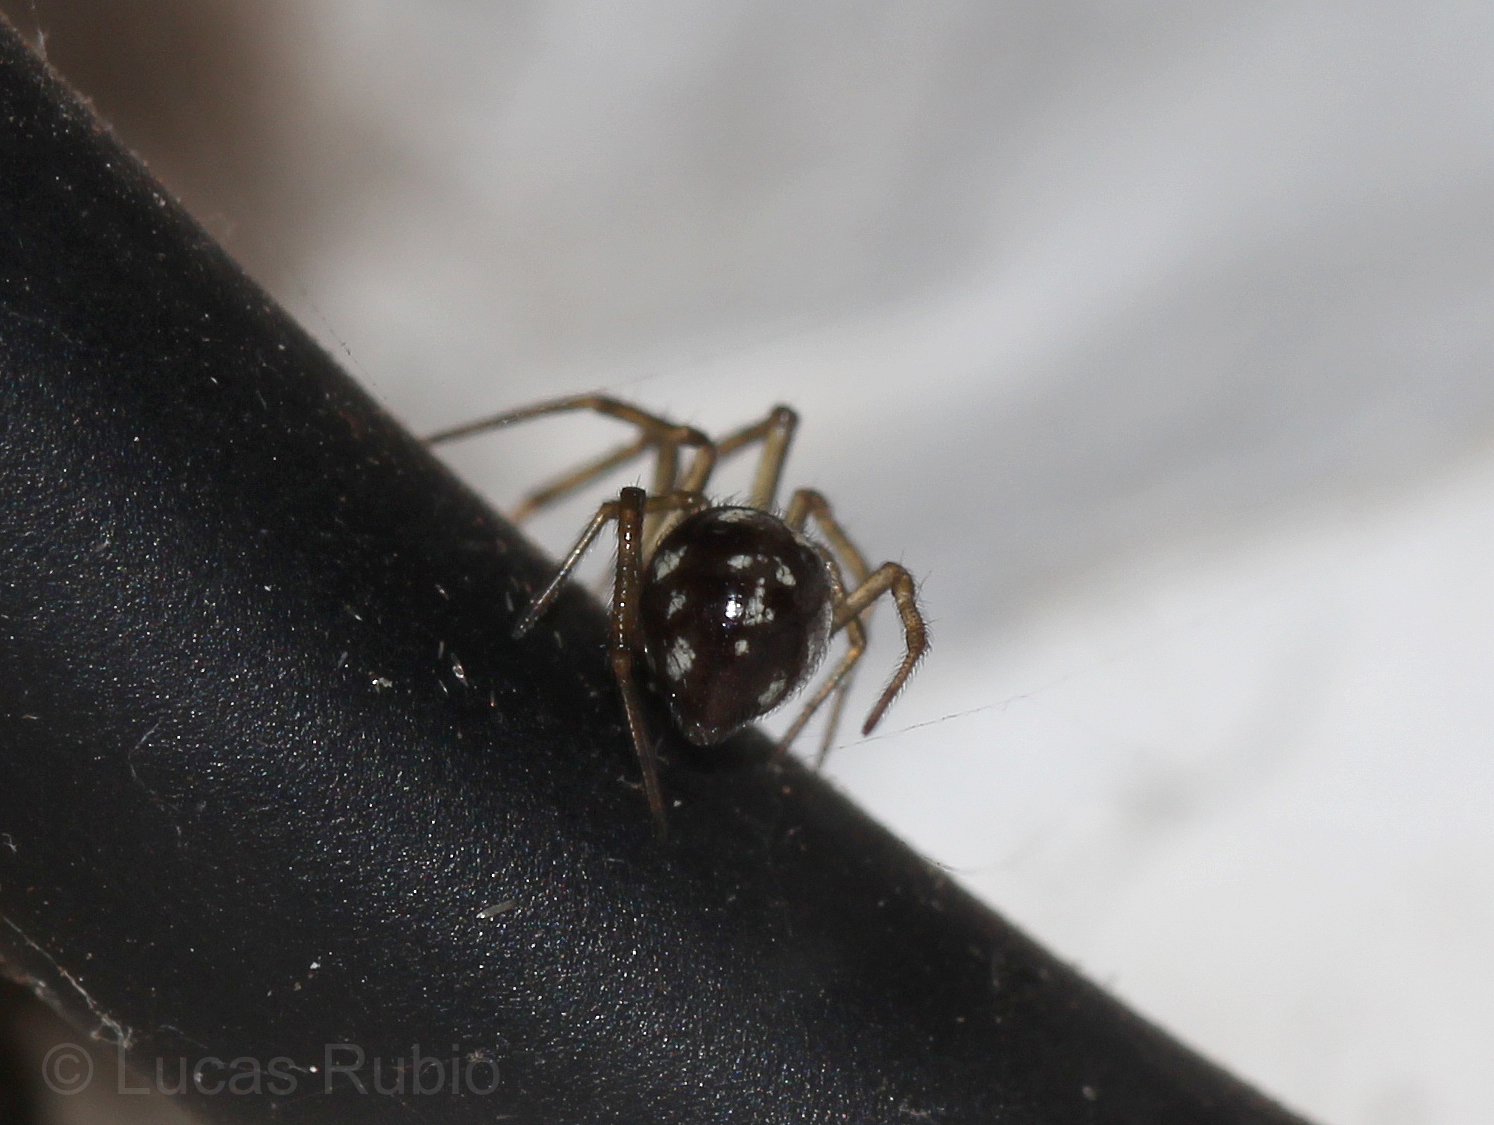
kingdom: Animalia
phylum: Arthropoda
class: Arachnida
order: Araneae
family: Theridiidae
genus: Steatoda
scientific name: Steatoda triangulosa
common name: Triangulate bud spider
